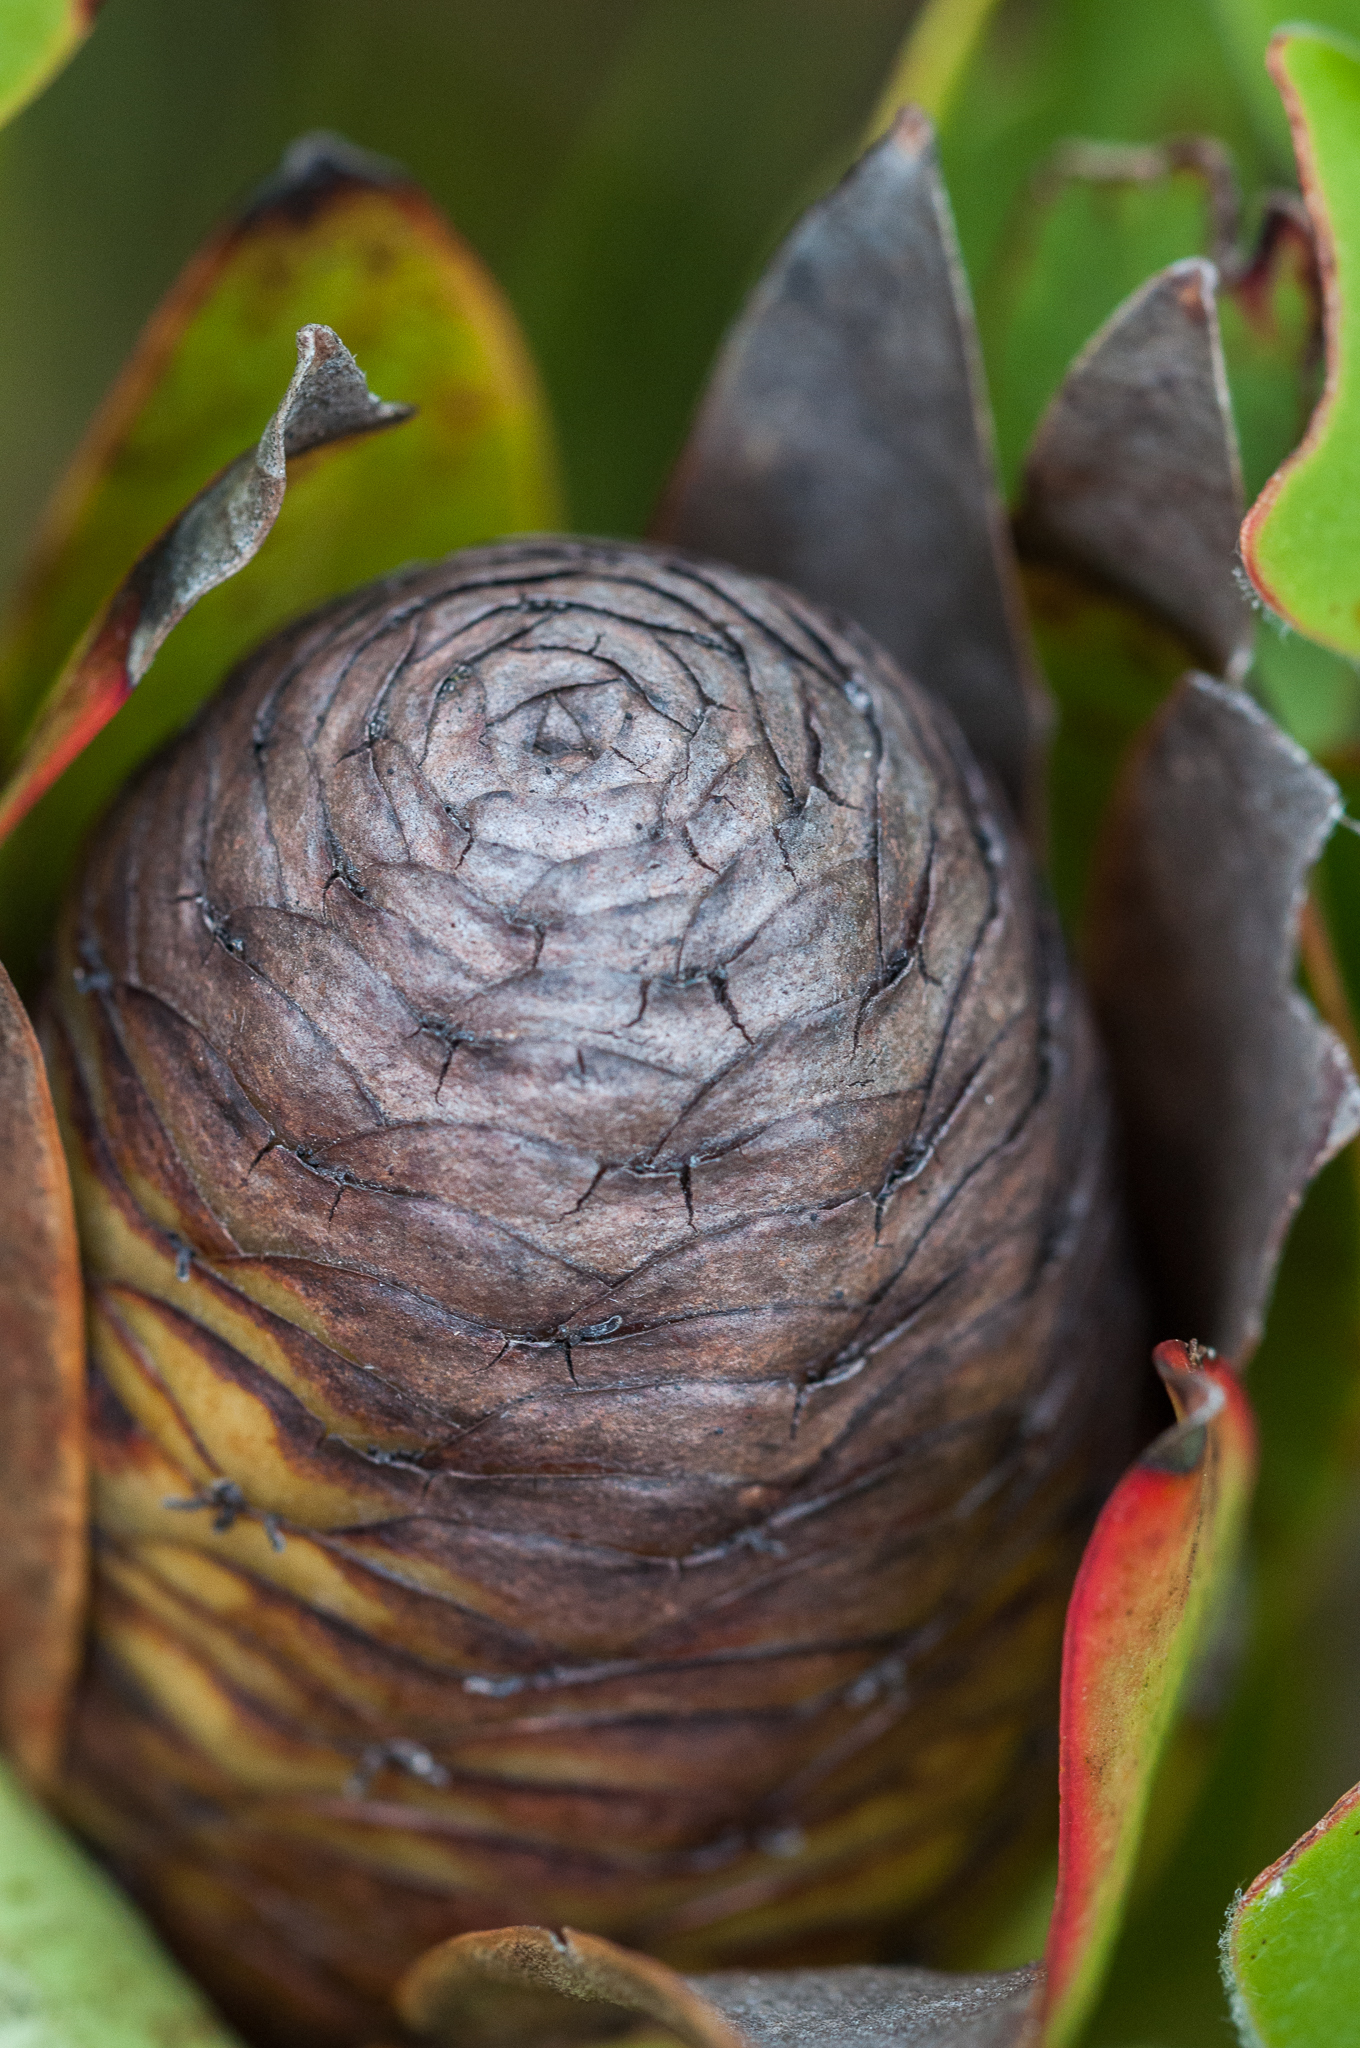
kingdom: Plantae
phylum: Tracheophyta
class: Magnoliopsida
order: Proteales
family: Proteaceae
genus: Leucadendron
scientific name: Leucadendron gandogeri
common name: Broad-leaf conebush
